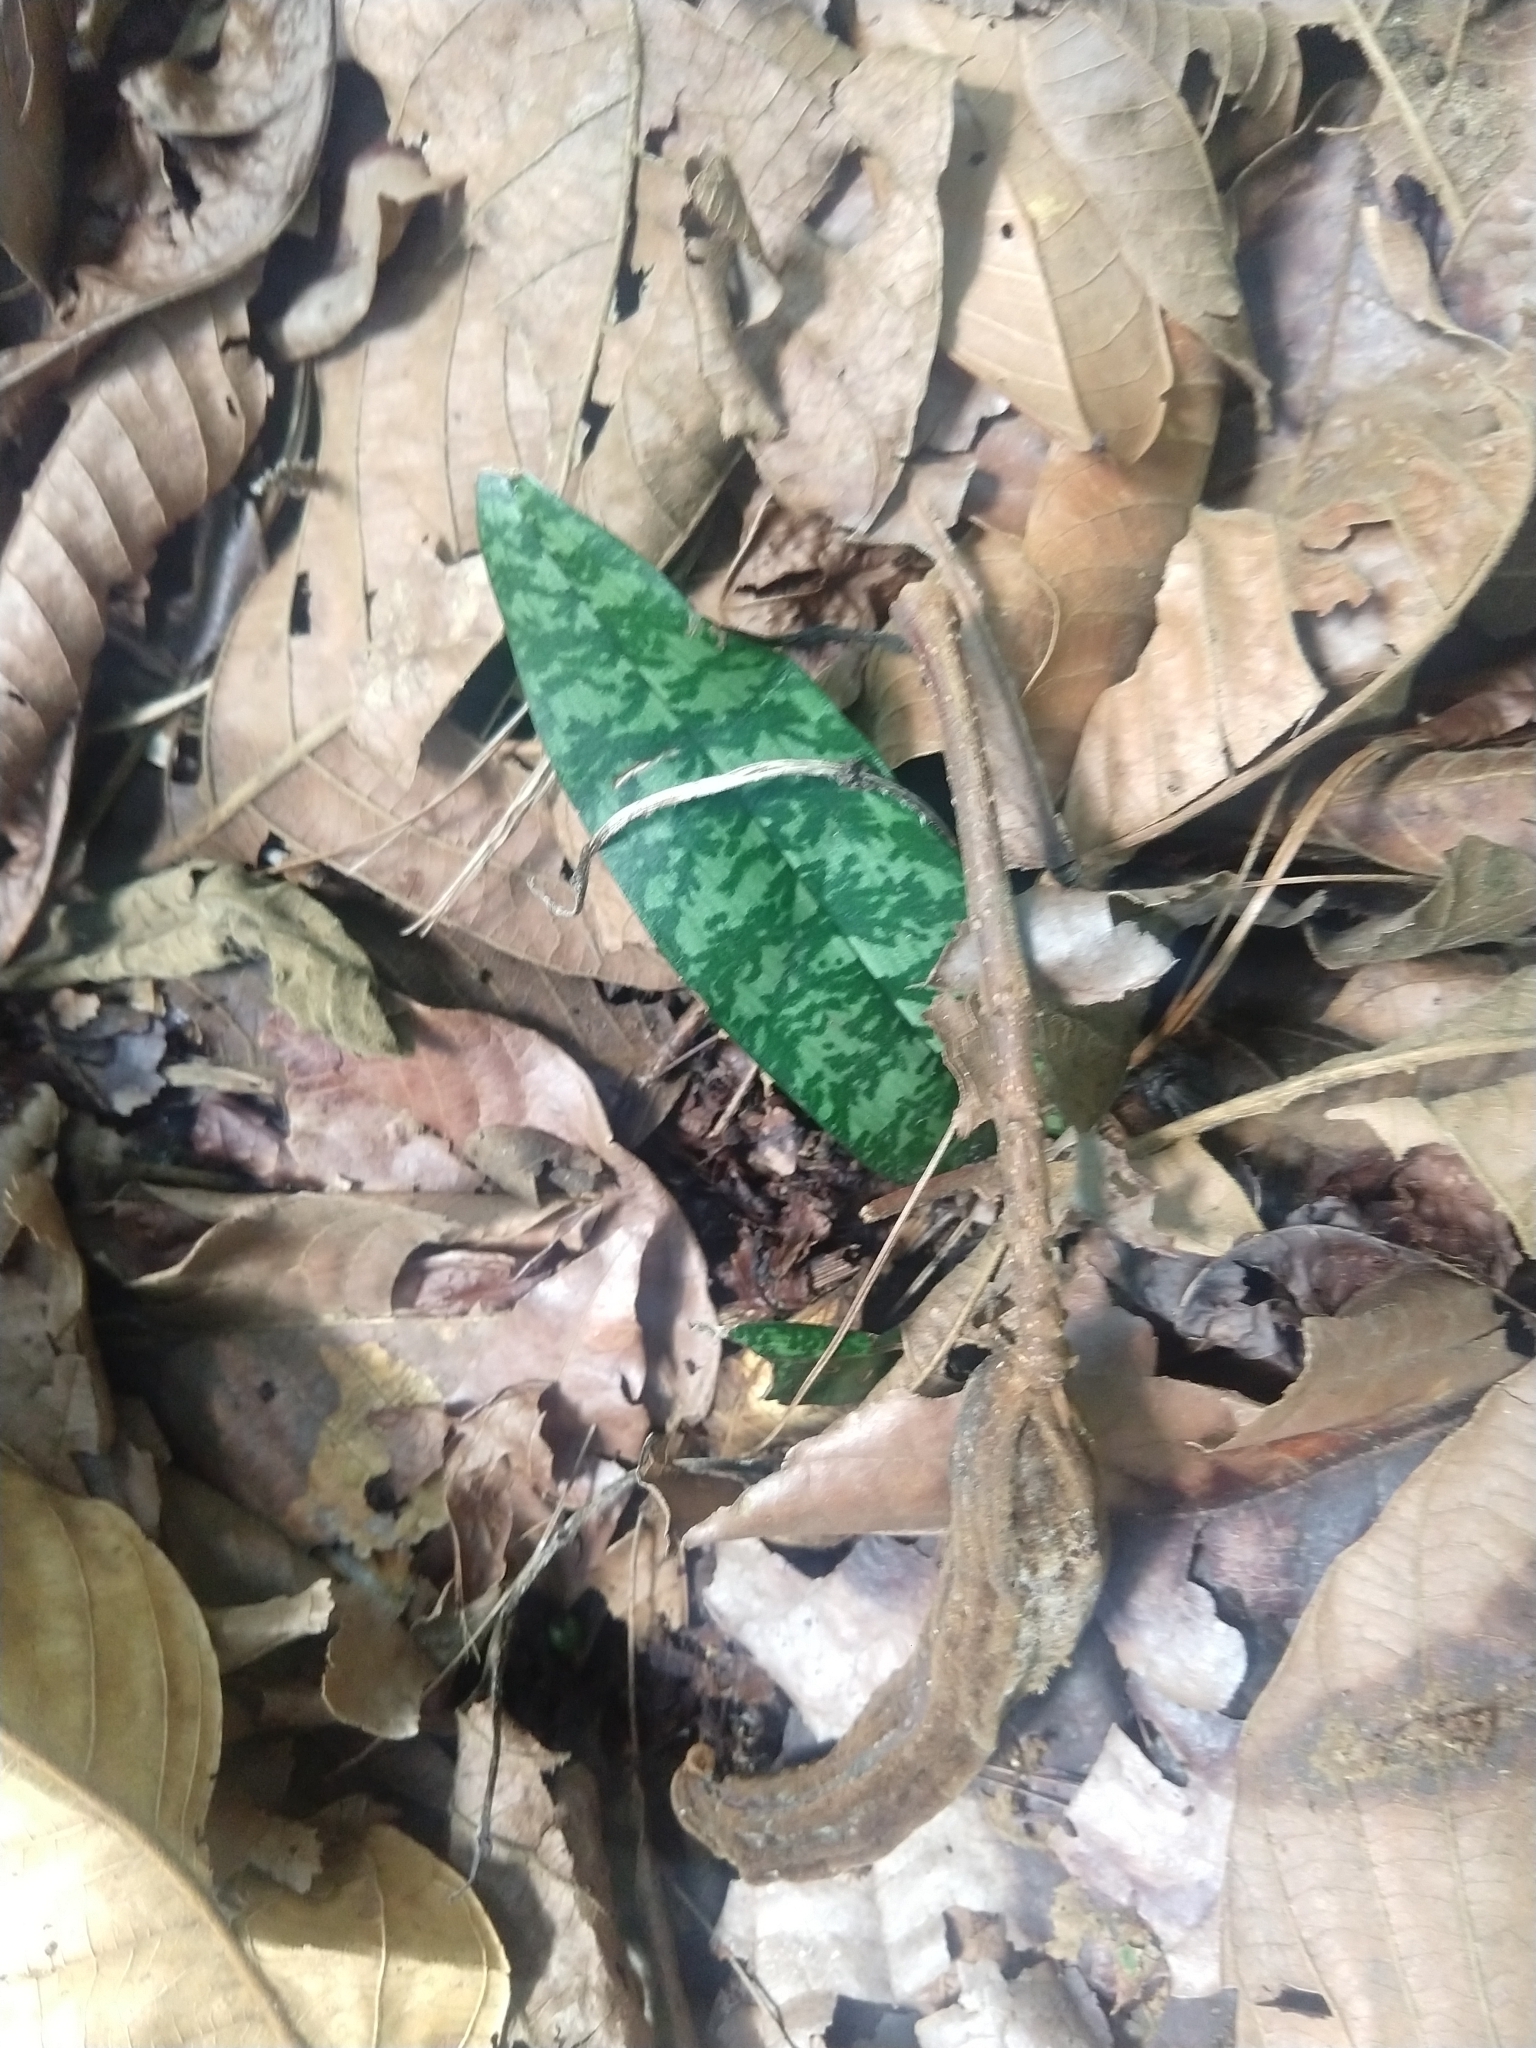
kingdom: Plantae
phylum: Tracheophyta
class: Liliopsida
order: Asparagales
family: Orchidaceae
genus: Eulophia
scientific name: Eulophia maculata
